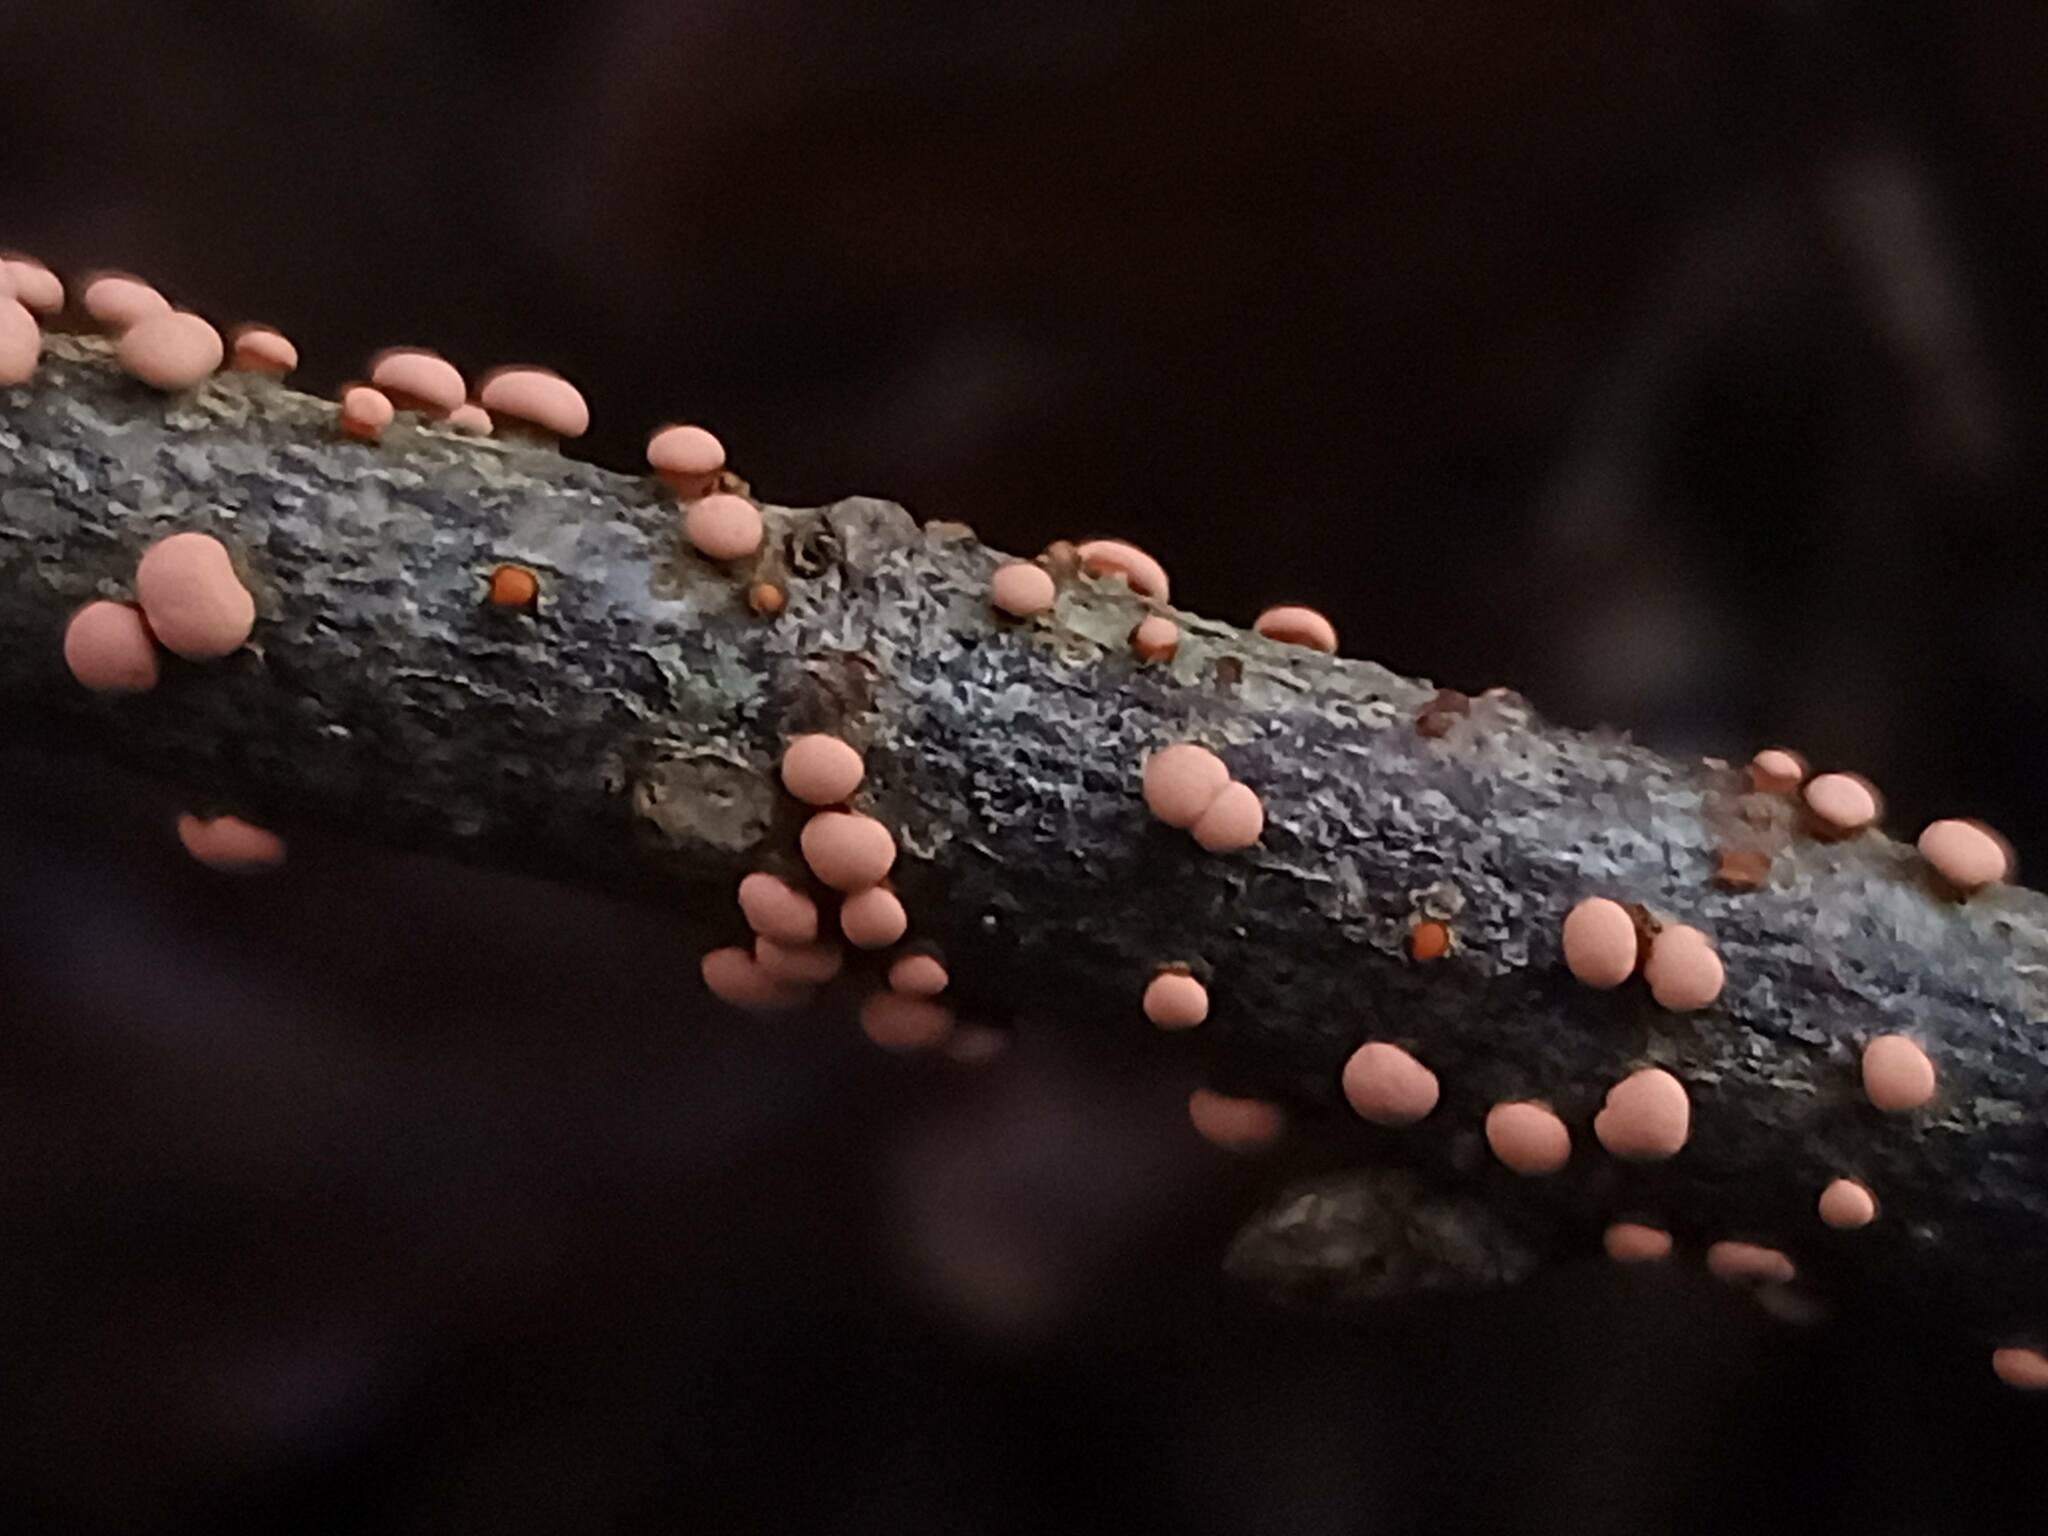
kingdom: Fungi
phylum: Ascomycota
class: Sordariomycetes
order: Hypocreales
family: Nectriaceae
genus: Nectria
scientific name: Nectria cinnabarina
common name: Coral spot
